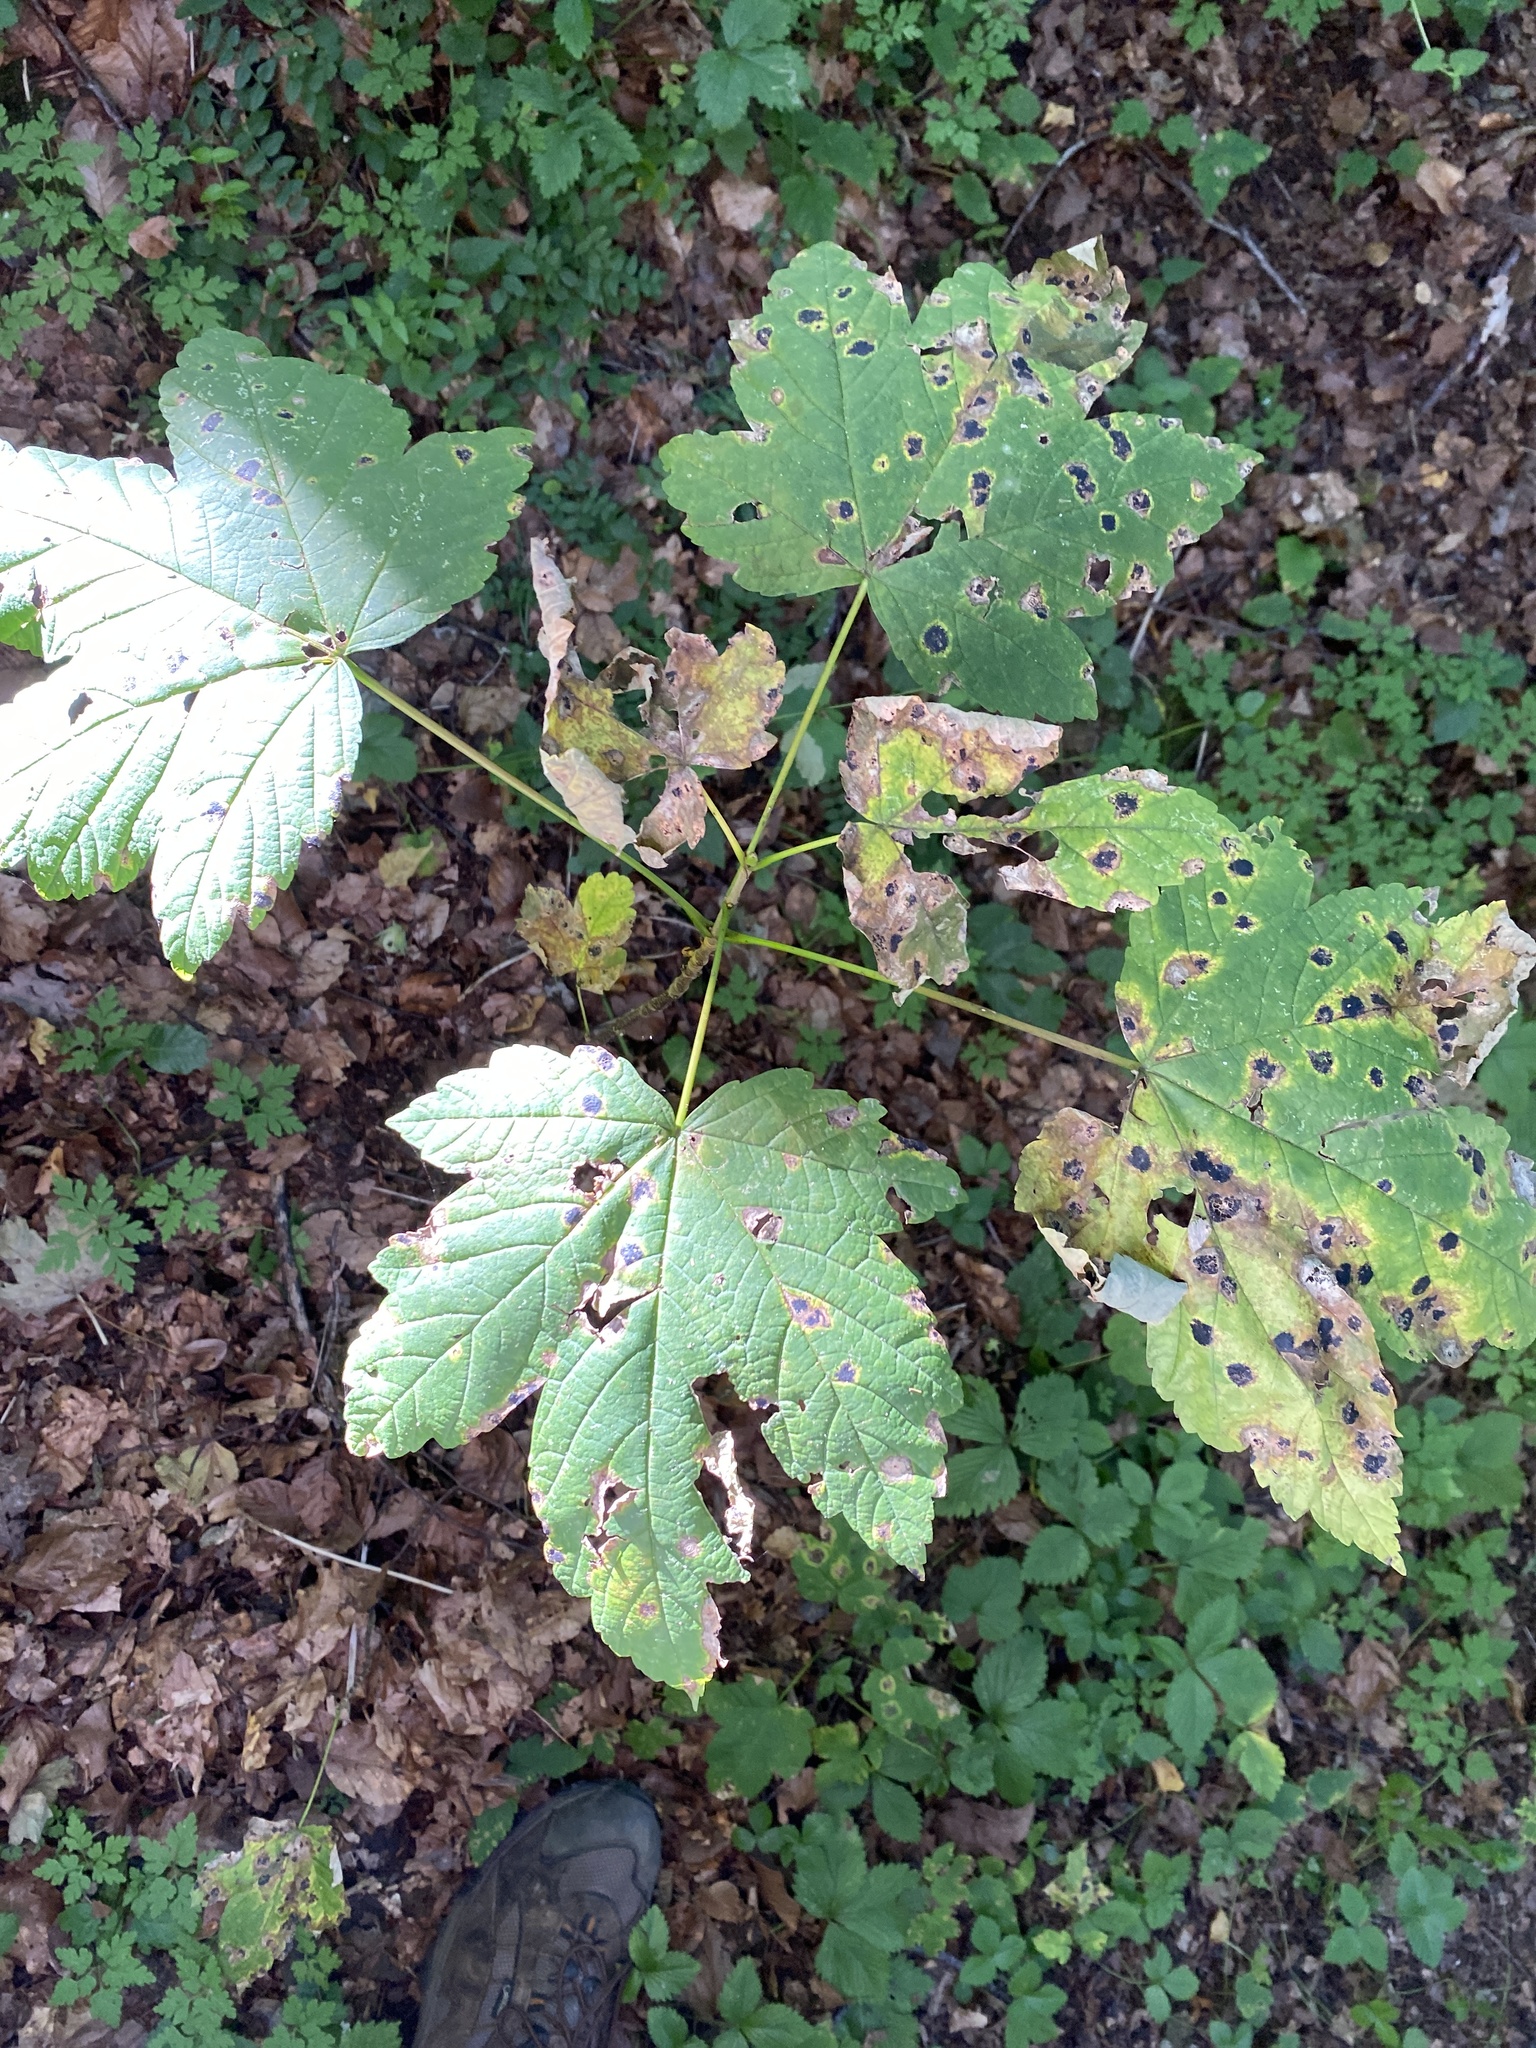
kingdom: Plantae
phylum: Tracheophyta
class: Magnoliopsida
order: Sapindales
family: Sapindaceae
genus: Acer
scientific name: Acer pseudoplatanus
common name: Sycamore
